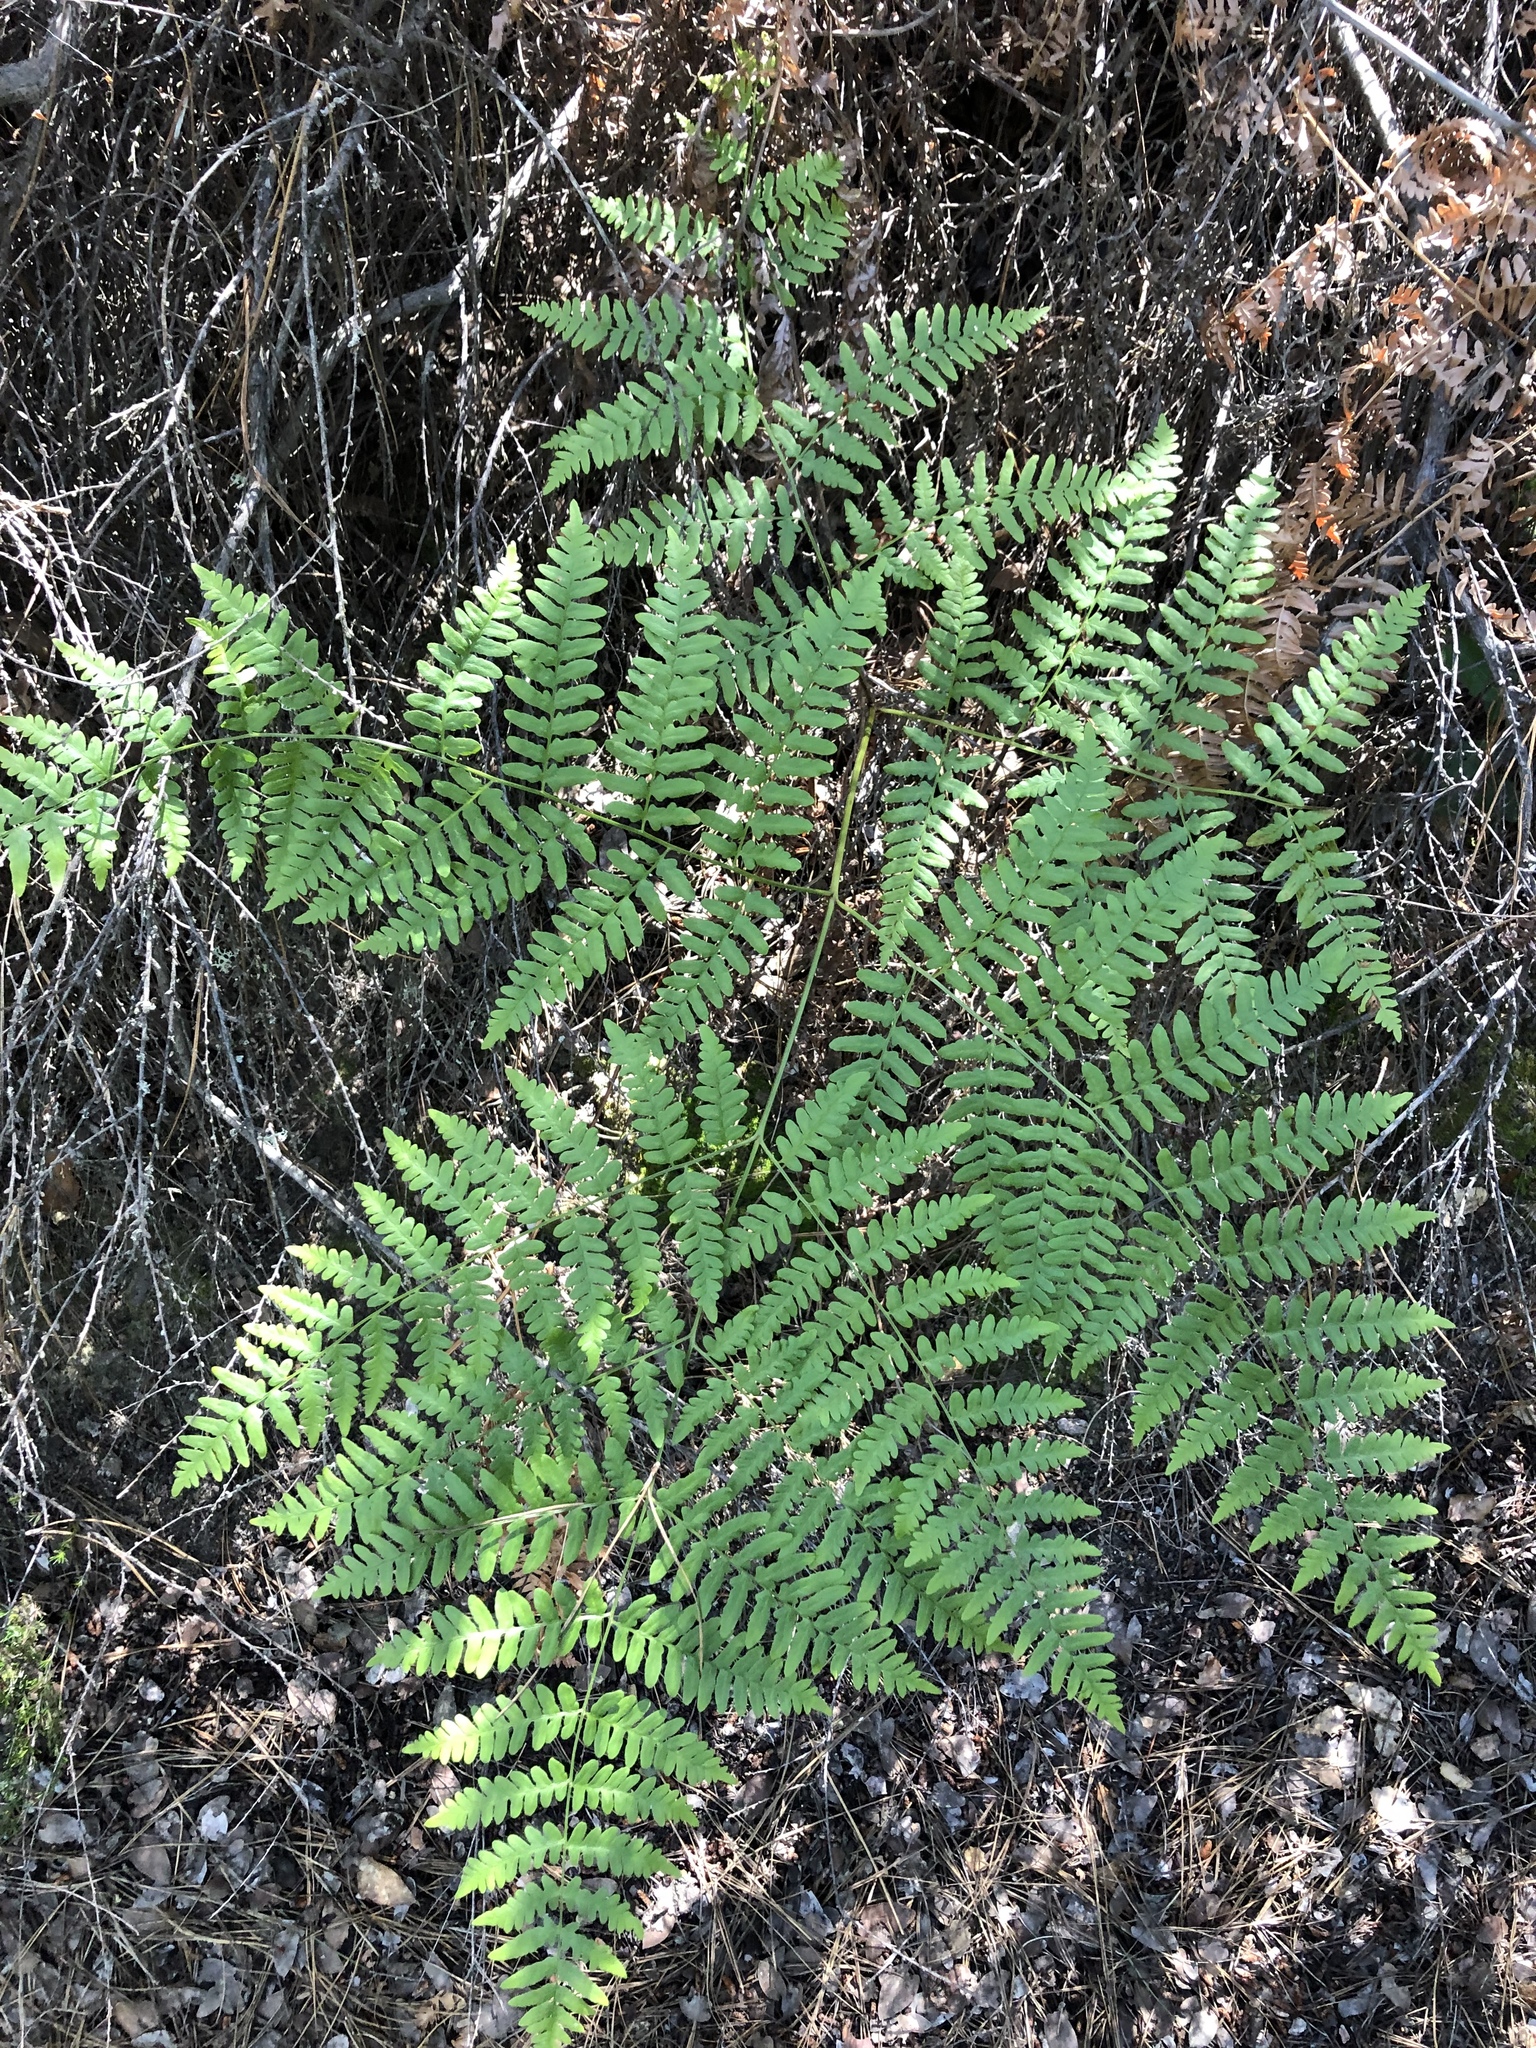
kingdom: Plantae
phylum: Tracheophyta
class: Polypodiopsida
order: Polypodiales
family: Dennstaedtiaceae
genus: Pteridium
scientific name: Pteridium aquilinum
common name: Bracken
